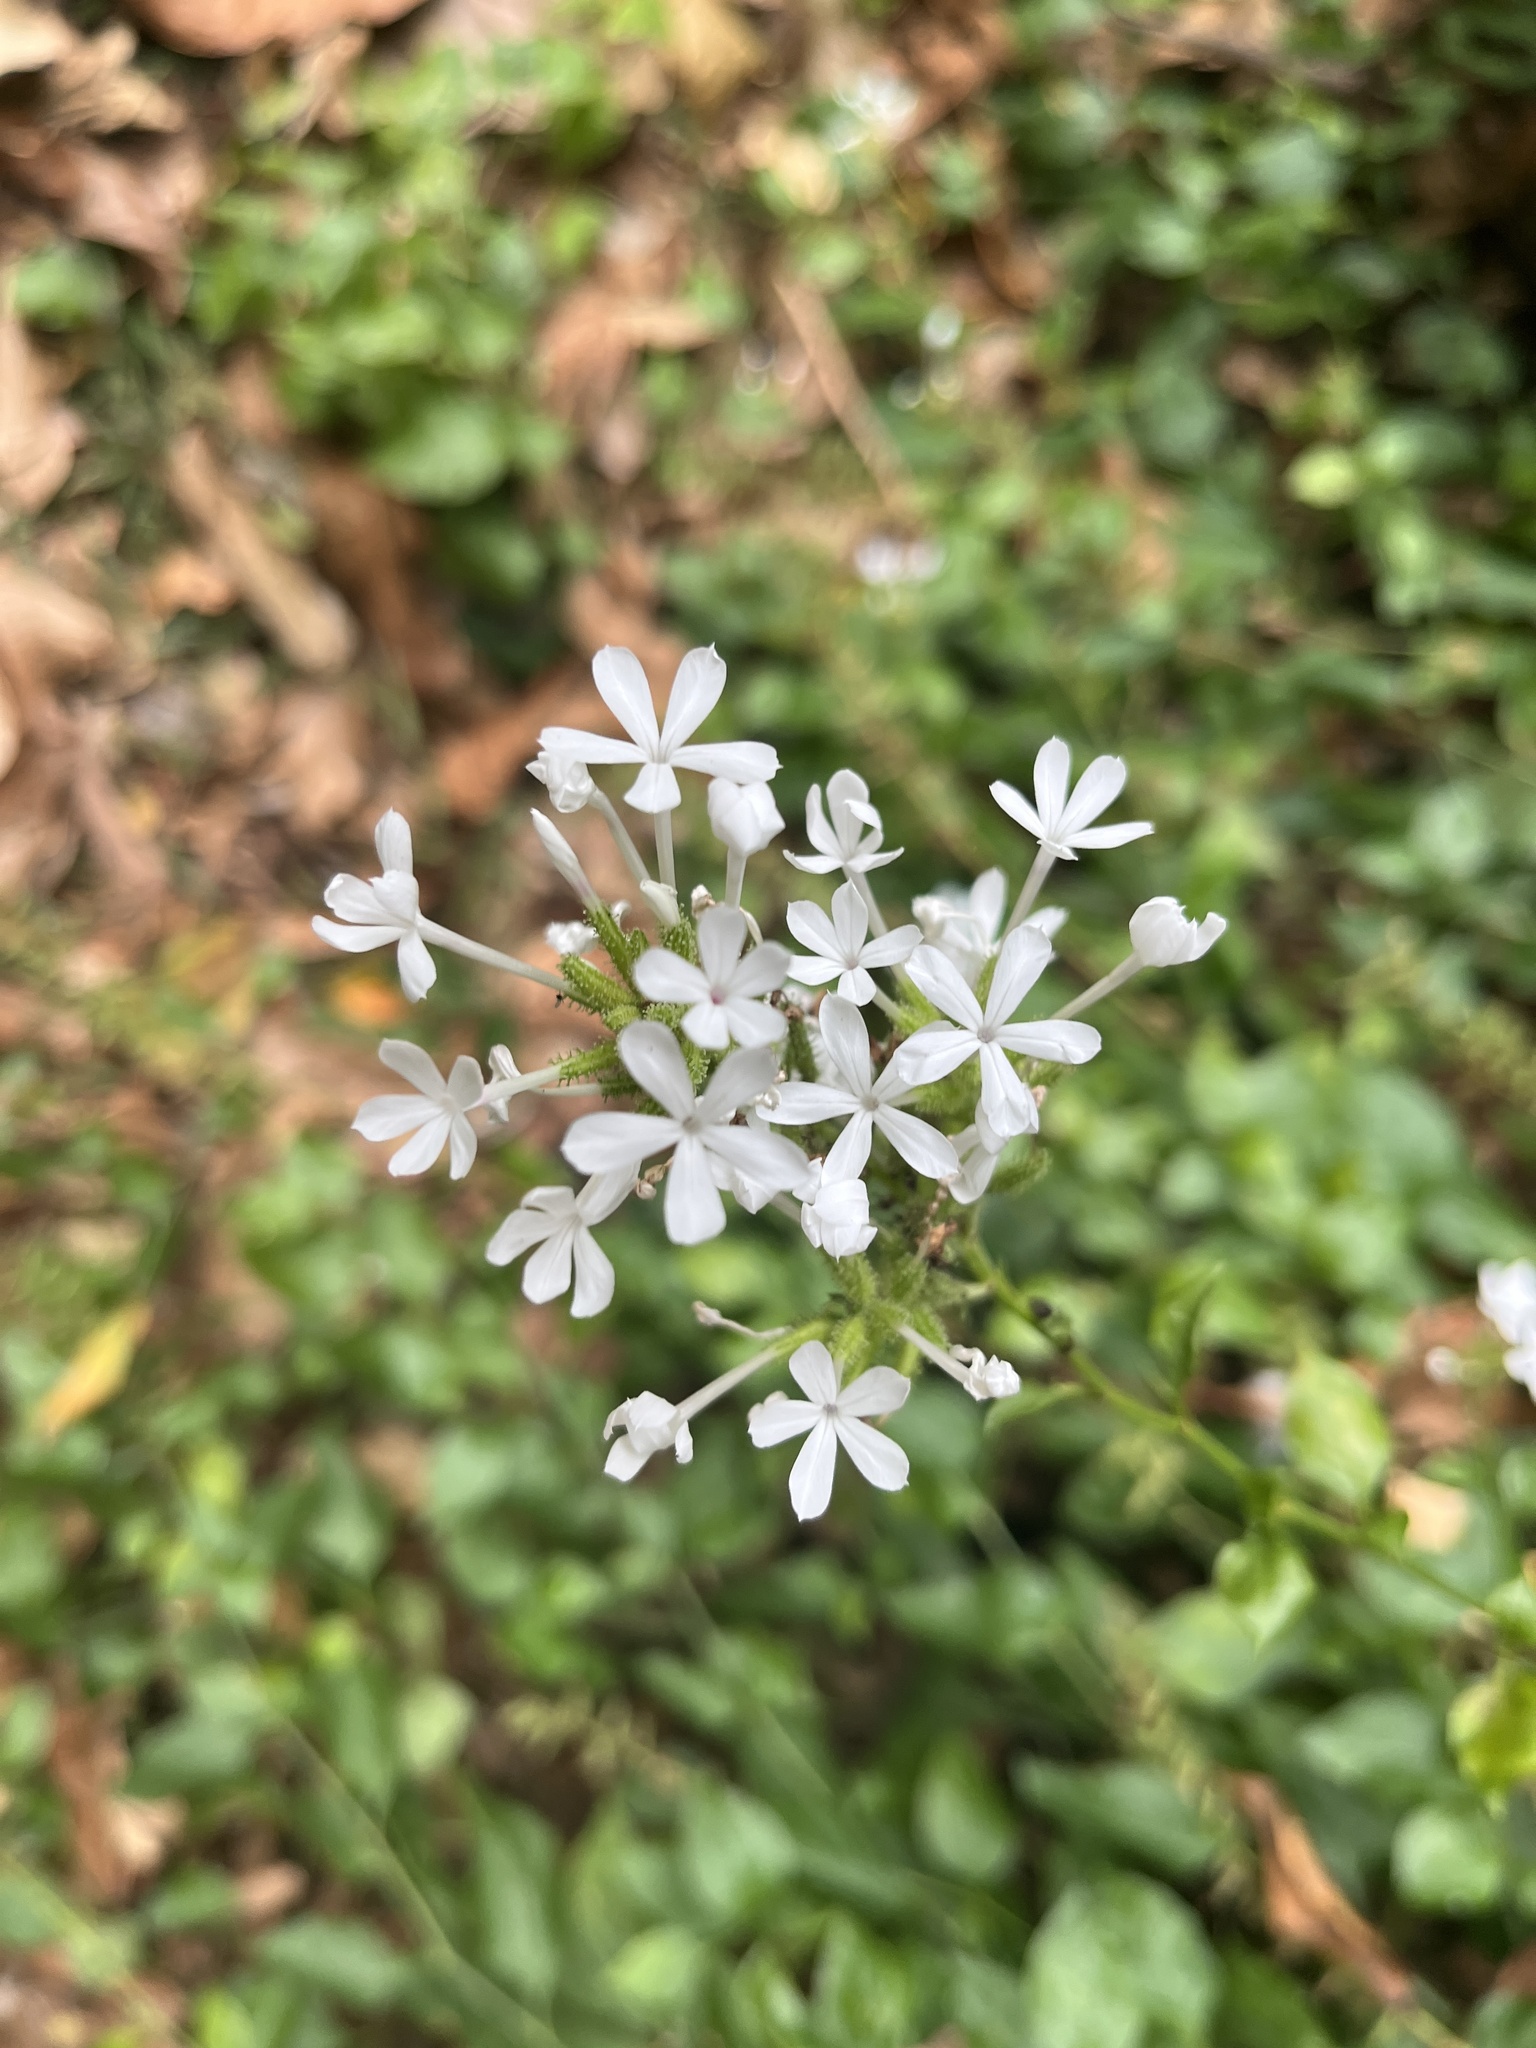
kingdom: Plantae
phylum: Tracheophyta
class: Magnoliopsida
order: Caryophyllales
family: Plumbaginaceae
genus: Plumbago
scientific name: Plumbago zeylanica
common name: Doctorbush
